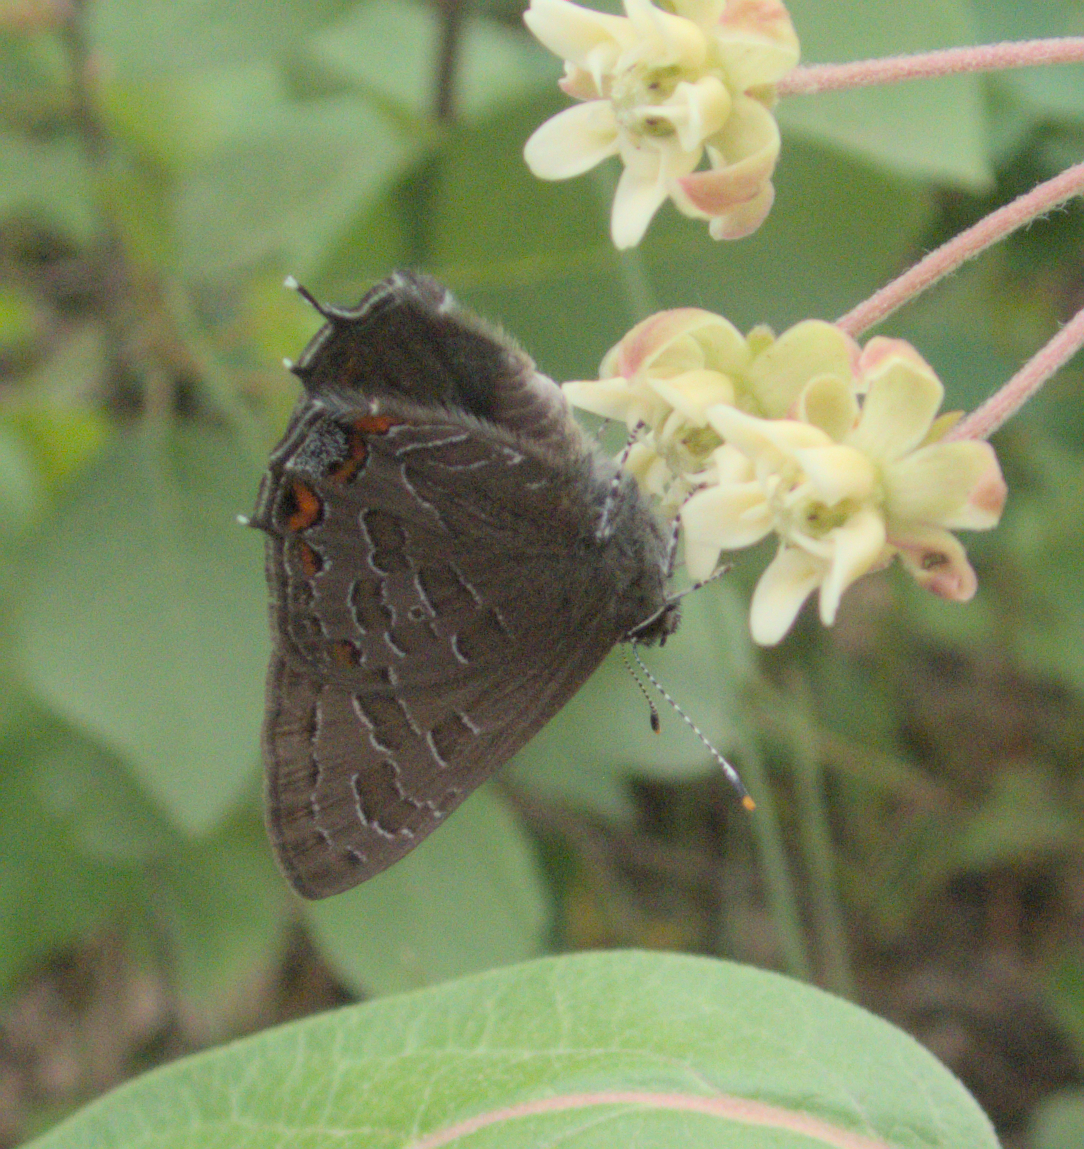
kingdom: Animalia
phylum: Arthropoda
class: Insecta
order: Lepidoptera
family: Lycaenidae
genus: Satyrium
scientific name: Satyrium liparops
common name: Striped hairstreak
